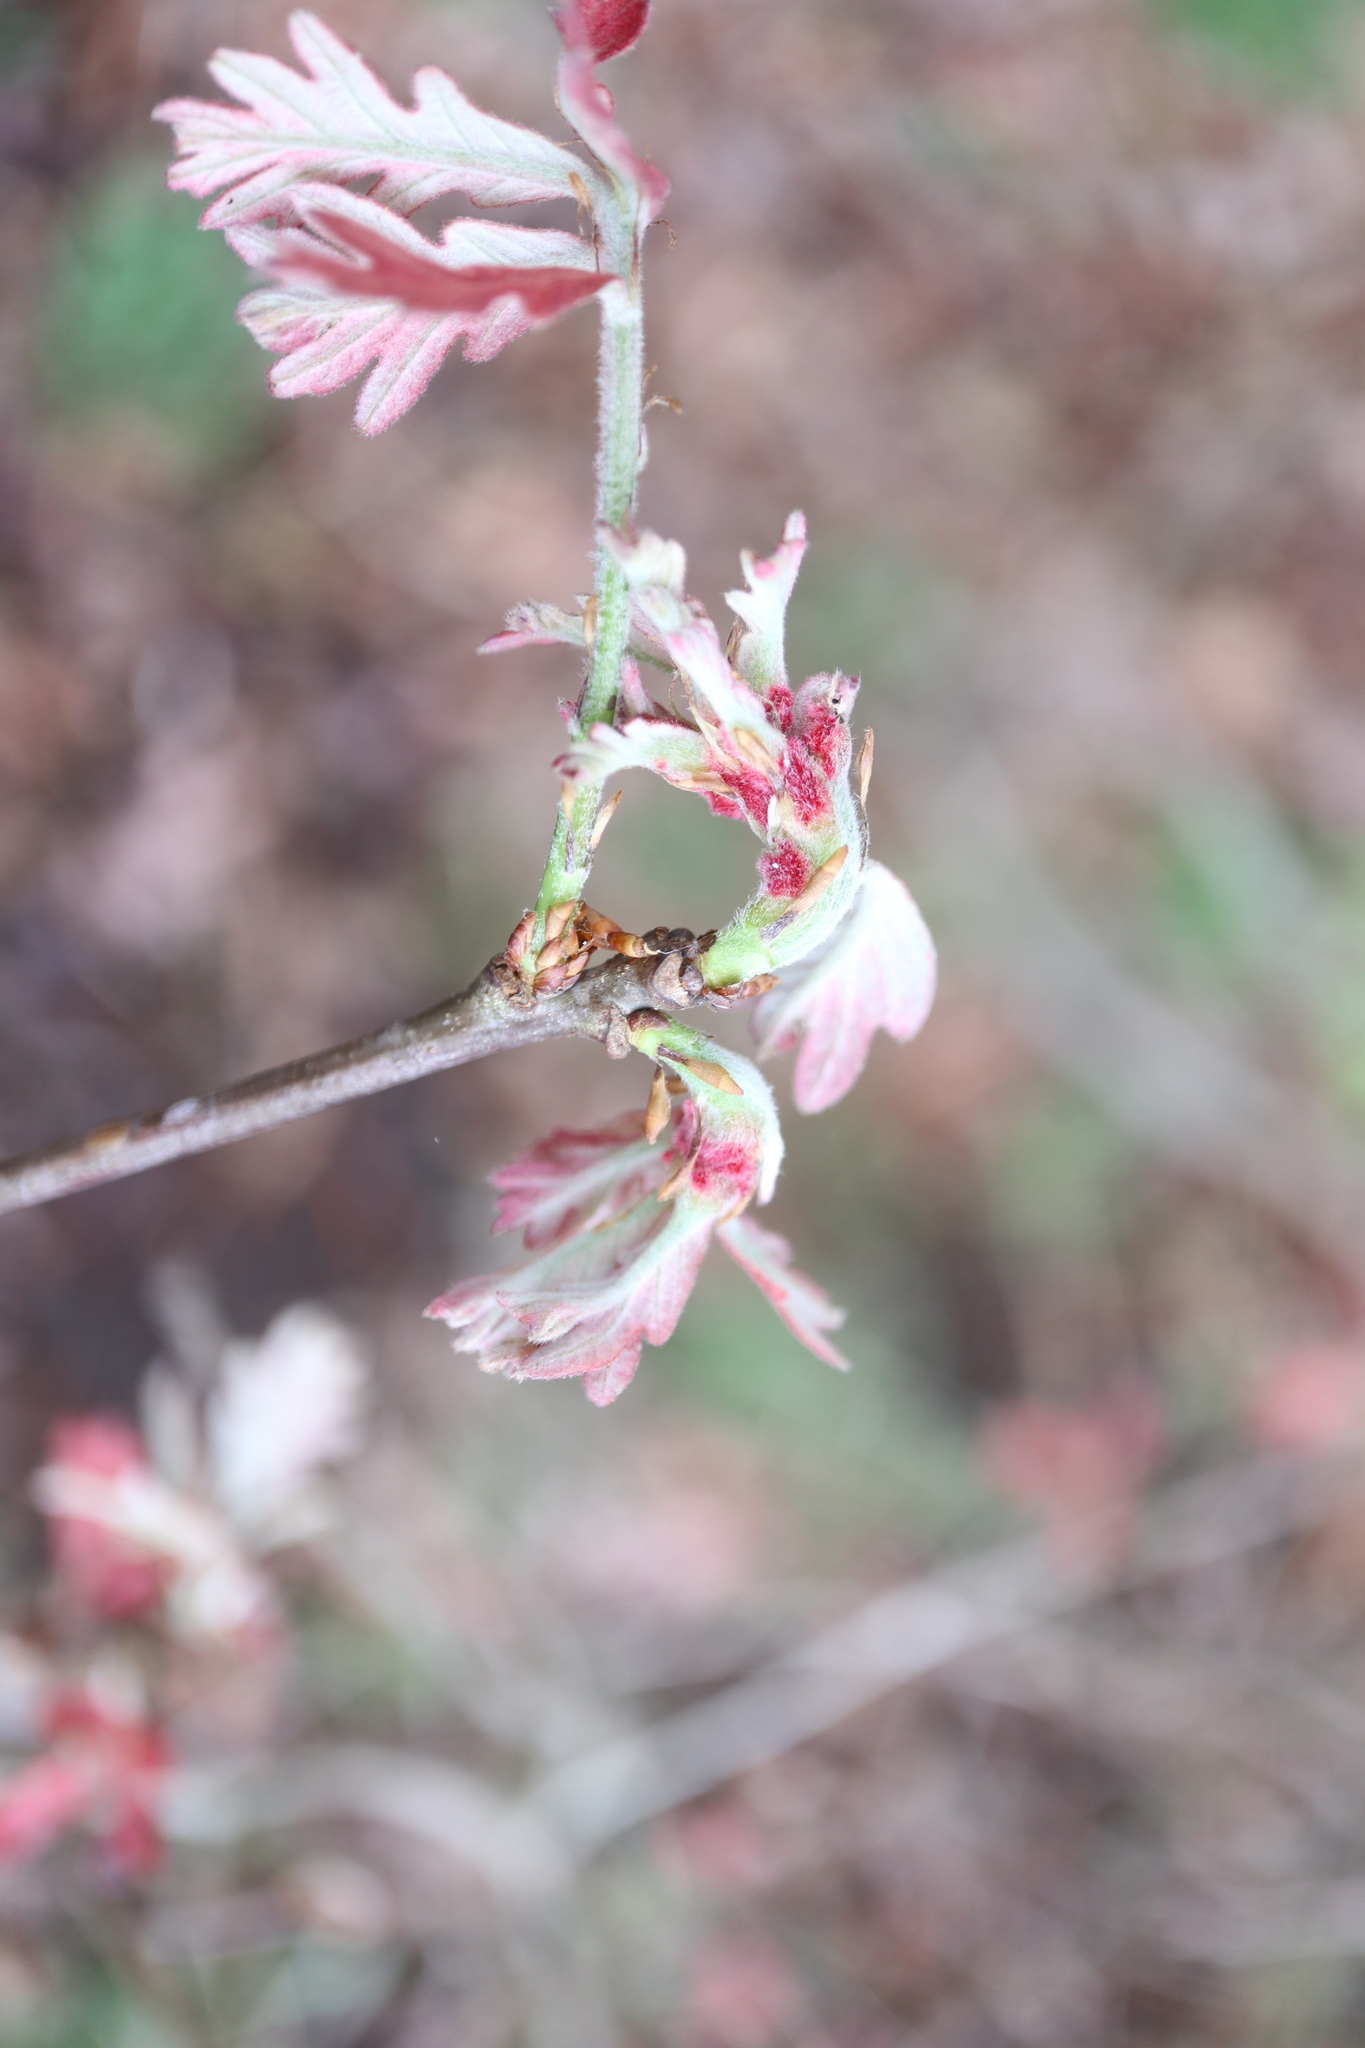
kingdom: Animalia
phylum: Arthropoda
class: Insecta
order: Hymenoptera
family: Cynipidae
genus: Neuroterus
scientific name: Neuroterus quercusbaccarum
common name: Common spangle gall
